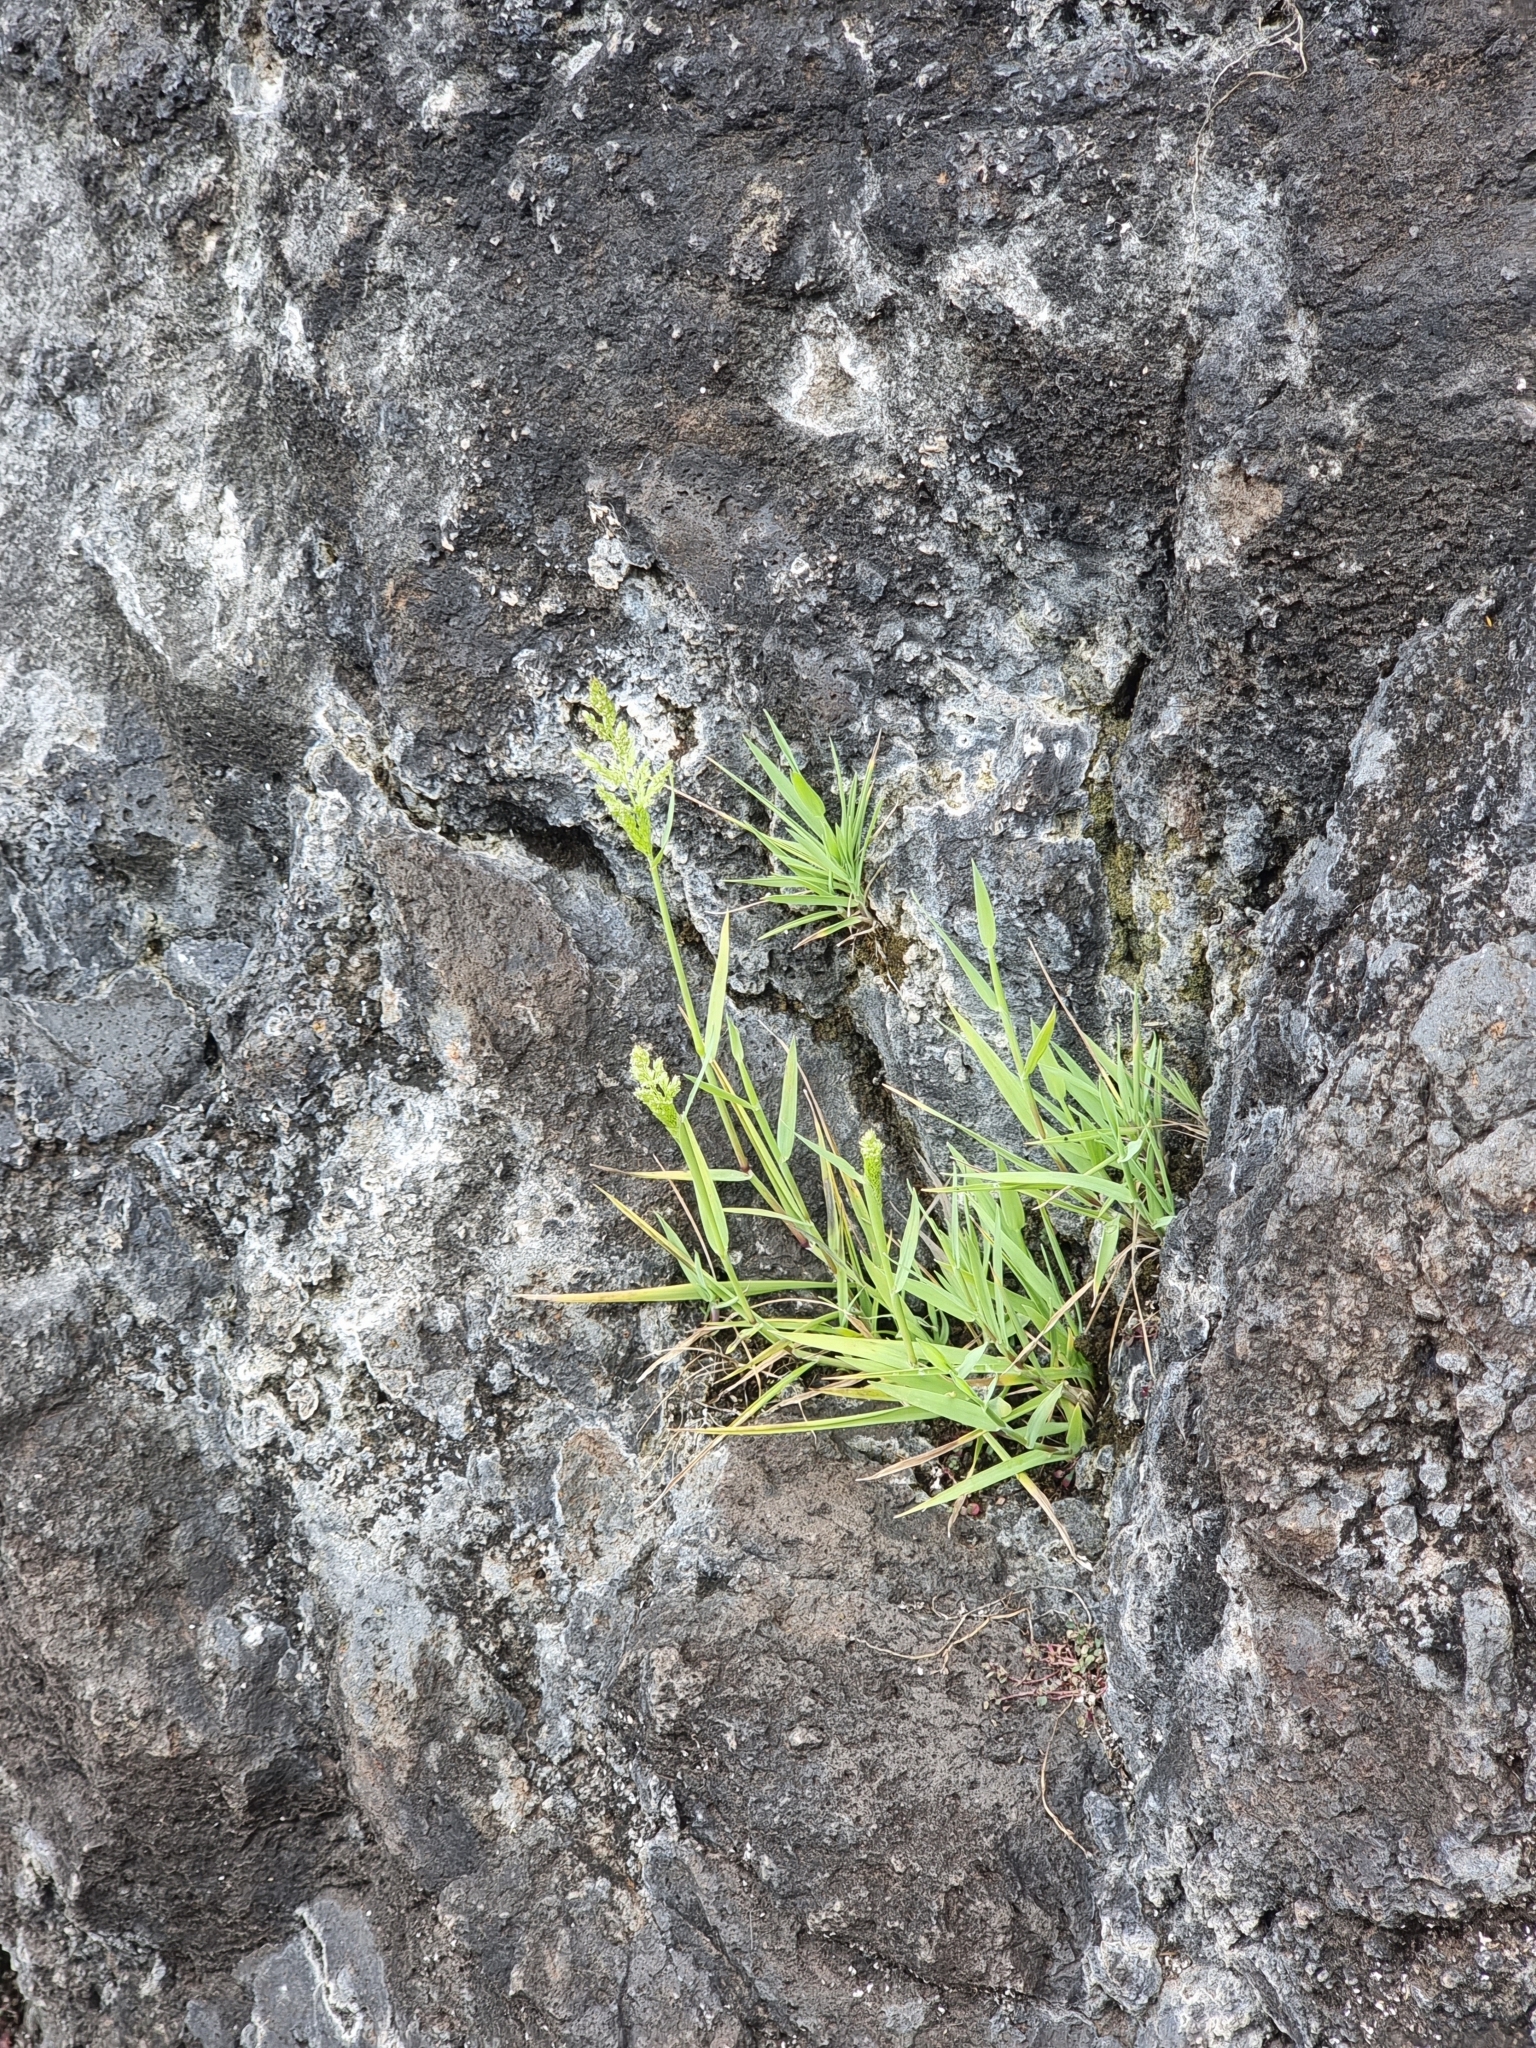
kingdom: Plantae
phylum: Tracheophyta
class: Liliopsida
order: Poales
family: Poaceae
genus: Polypogon
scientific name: Polypogon viridis
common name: Water bent
